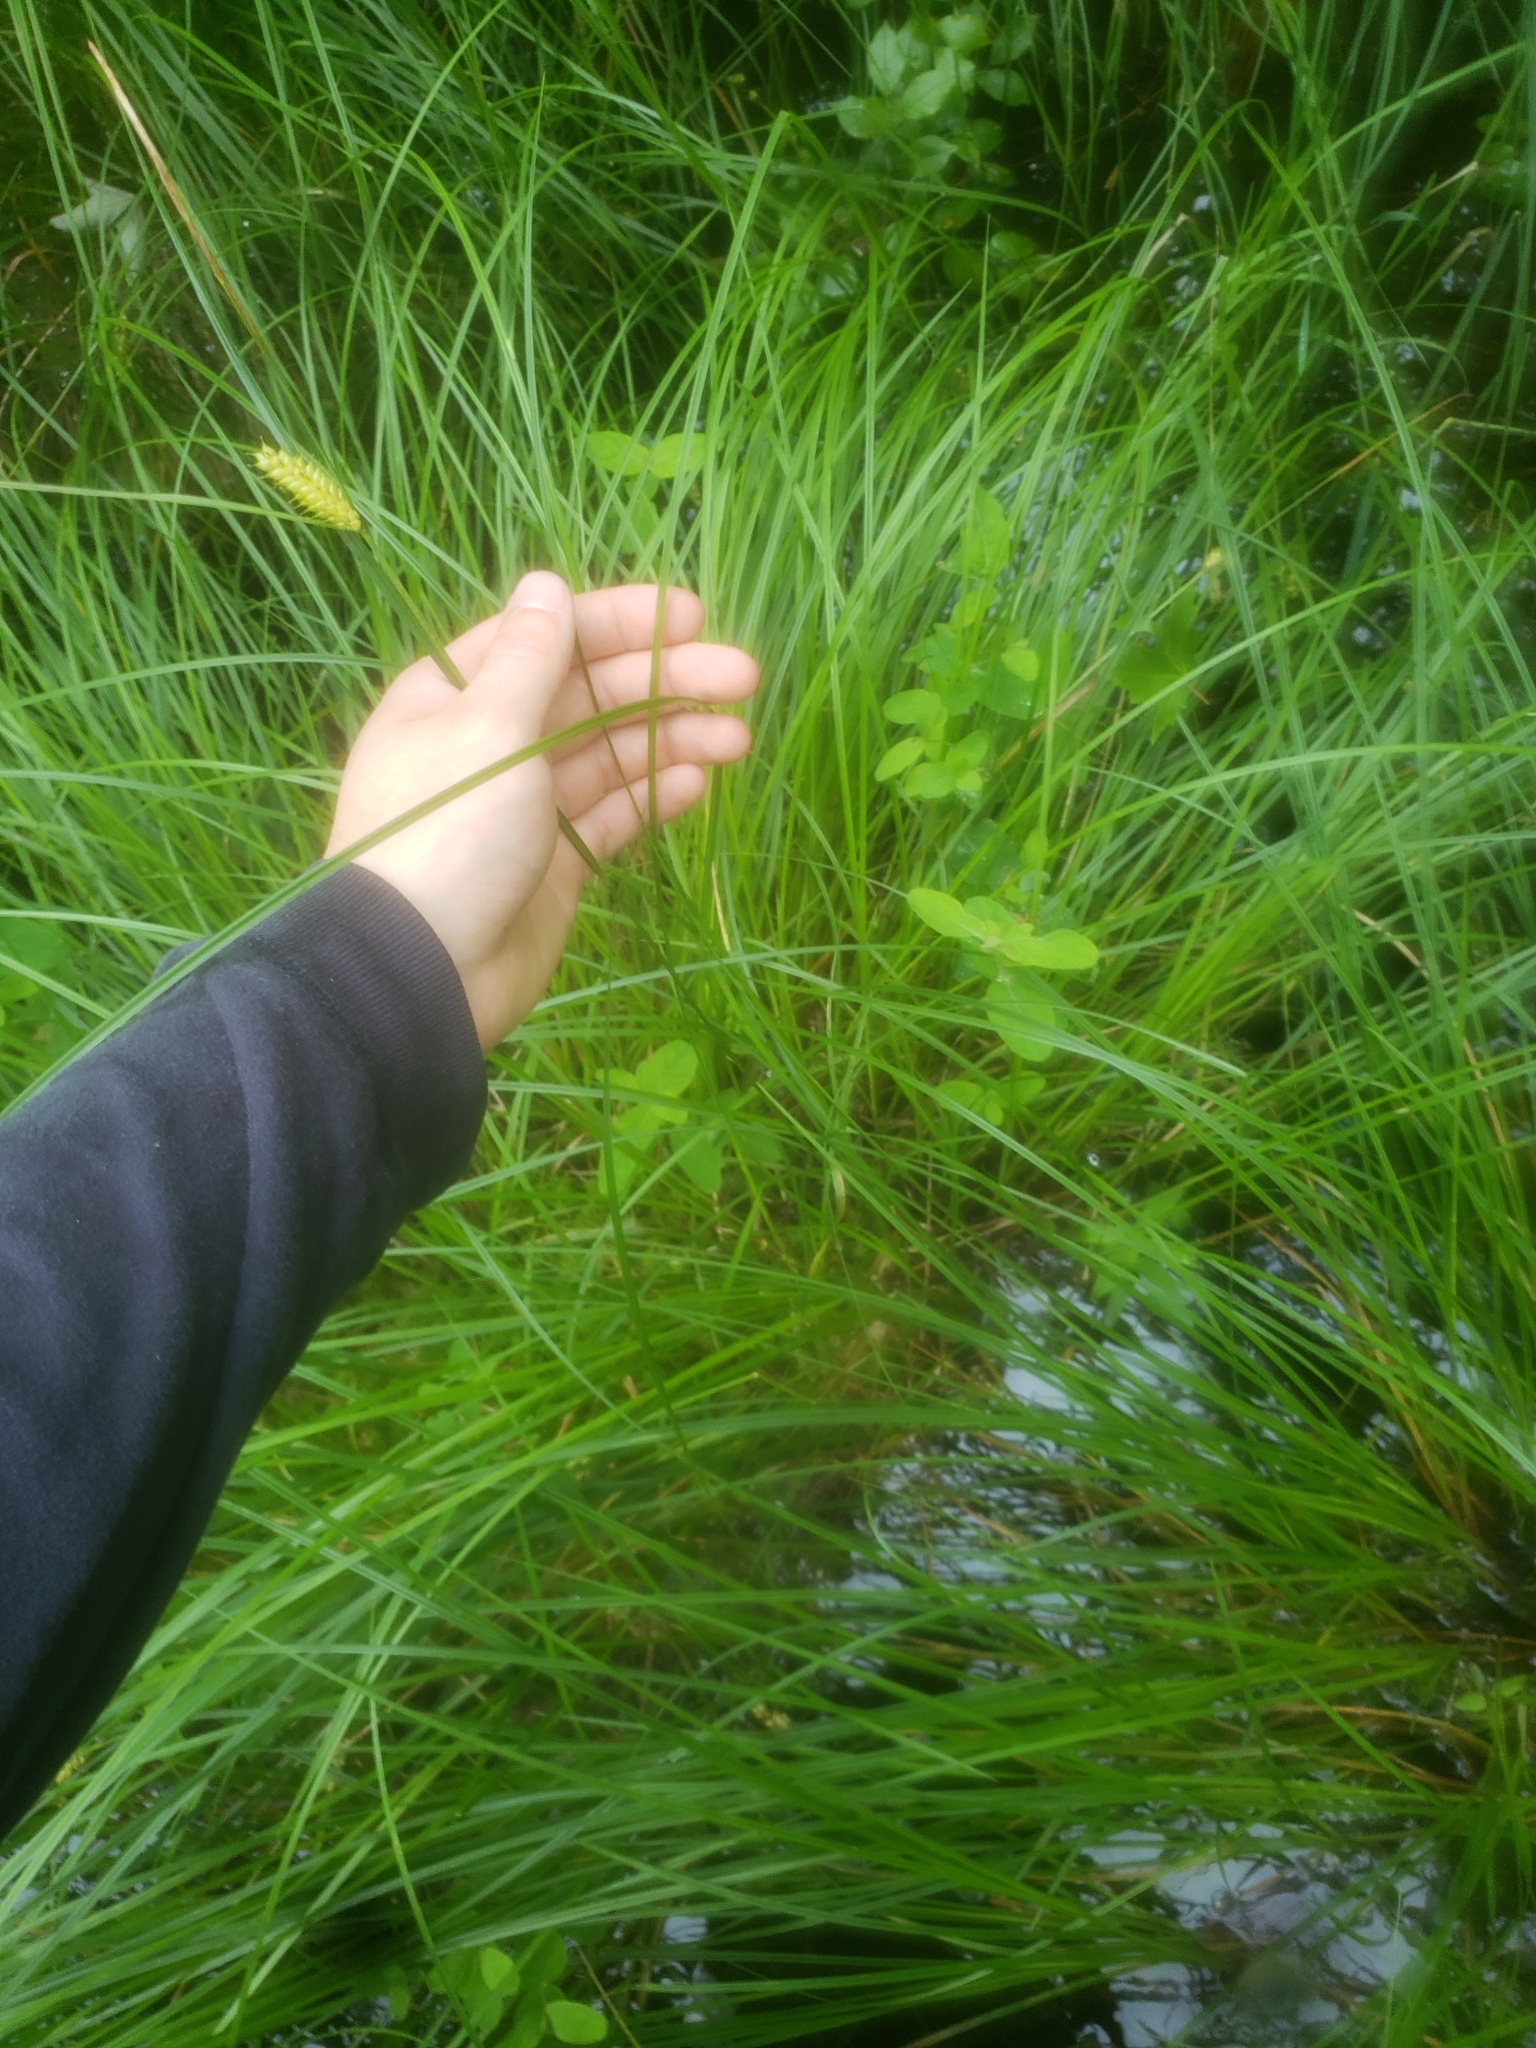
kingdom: Plantae
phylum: Tracheophyta
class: Liliopsida
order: Poales
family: Cyperaceae
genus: Carex
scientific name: Carex vesicaria
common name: Bladder-sedge
